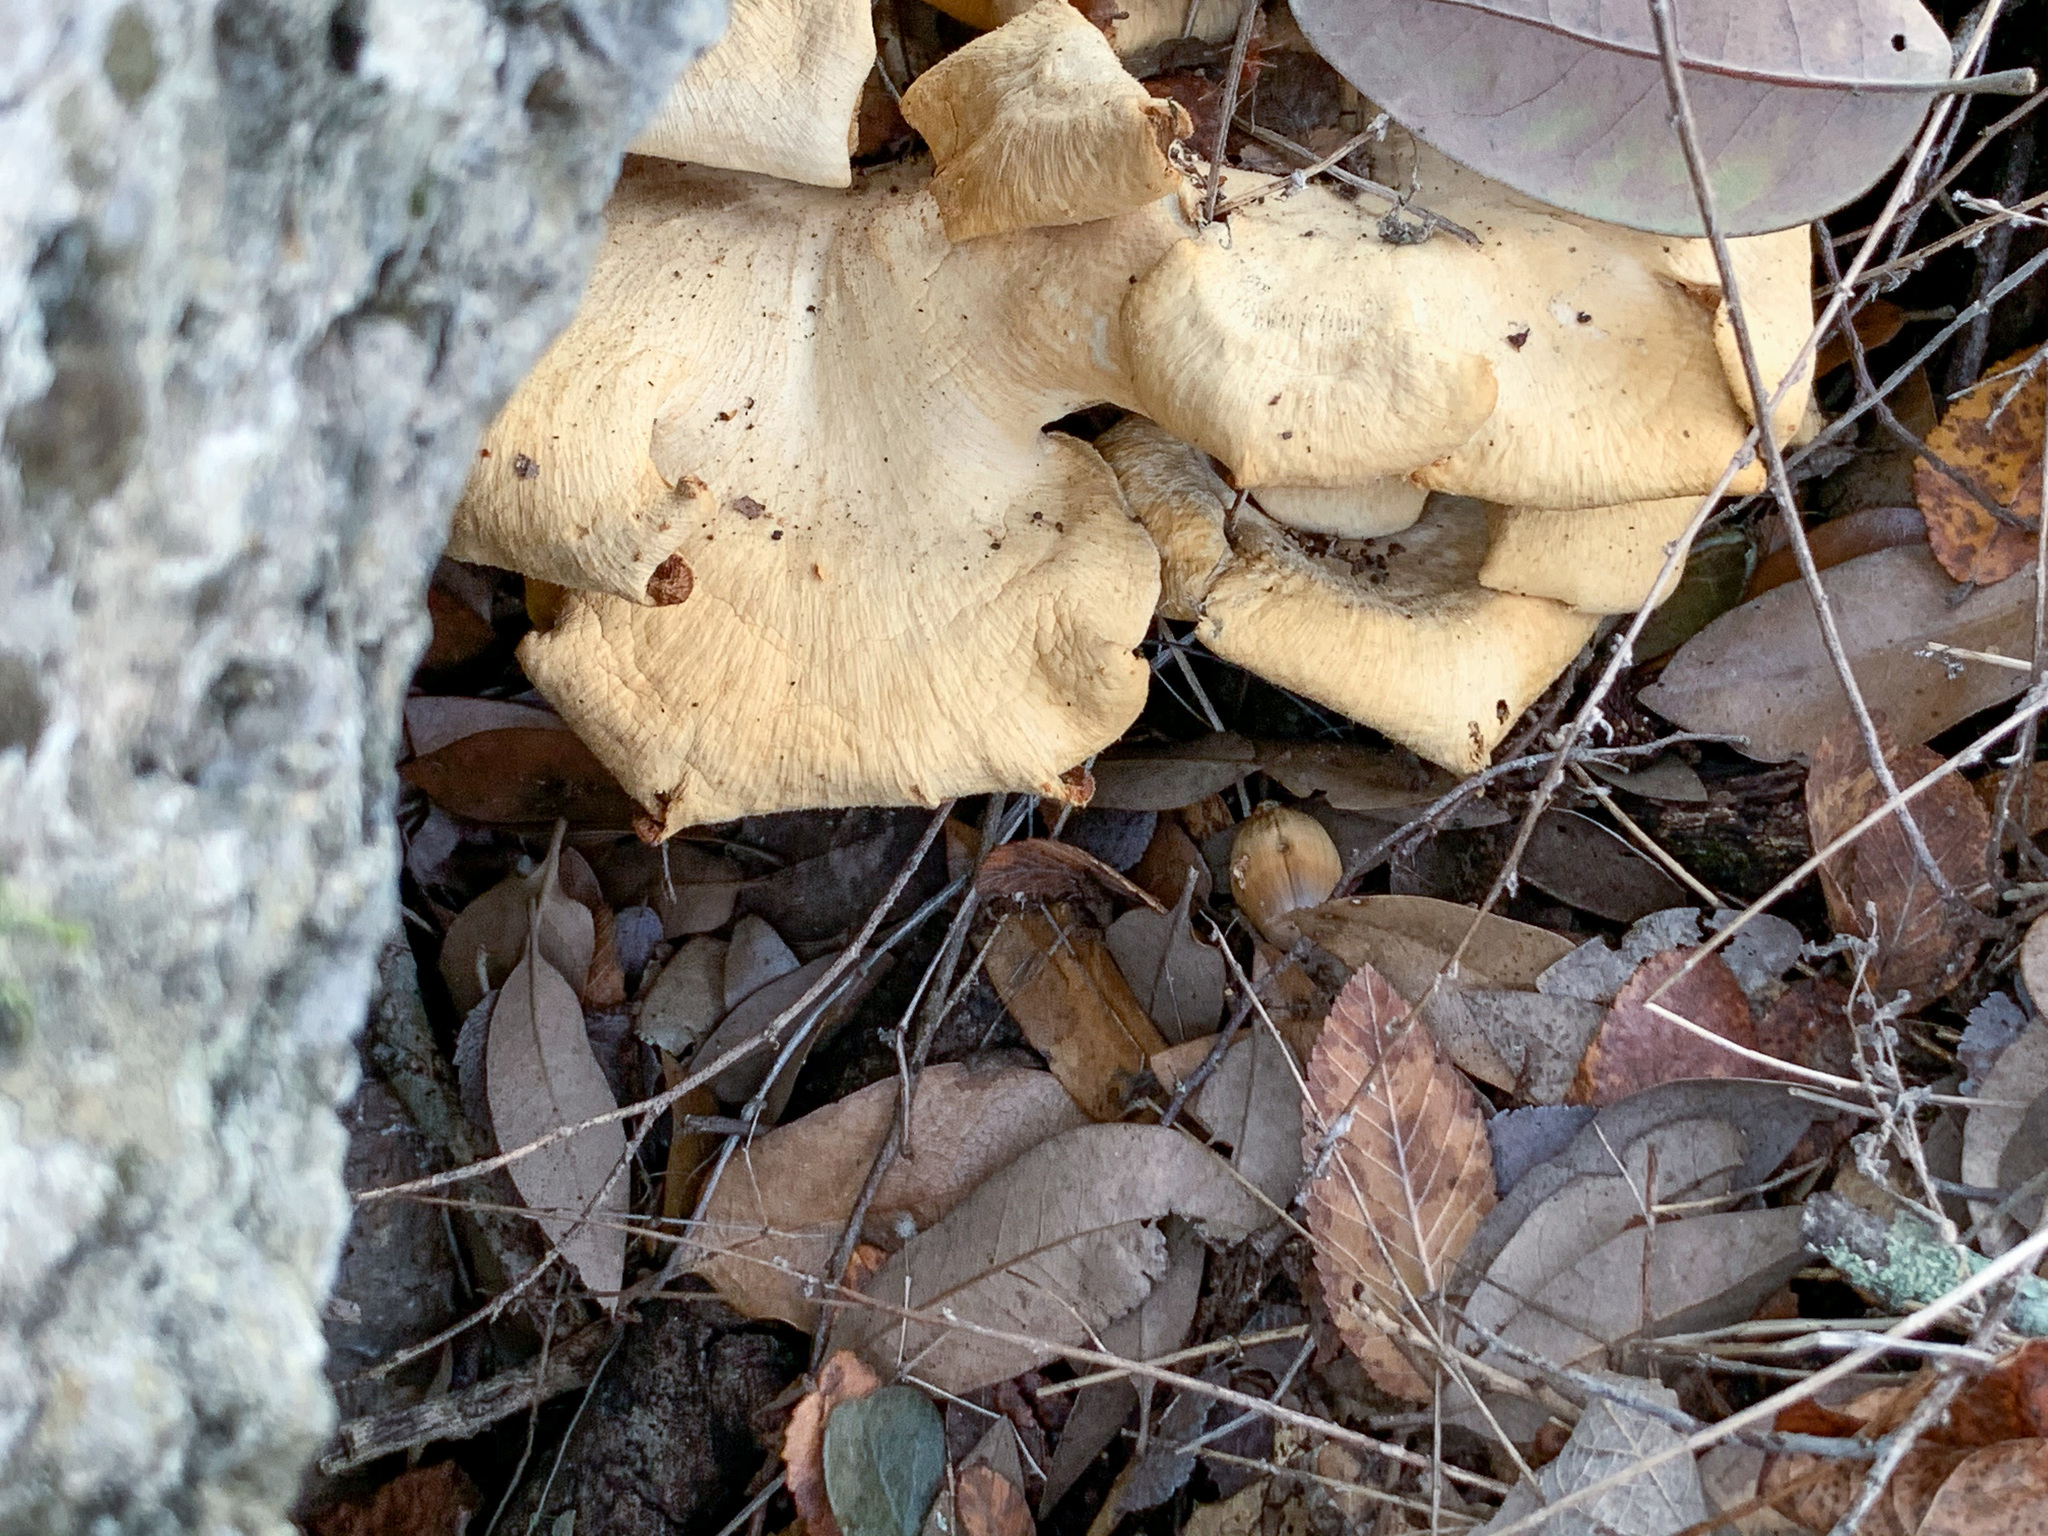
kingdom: Fungi
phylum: Basidiomycota
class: Agaricomycetes
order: Polyporales
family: Polyporaceae
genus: Favolus
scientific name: Favolus tenuiculus
